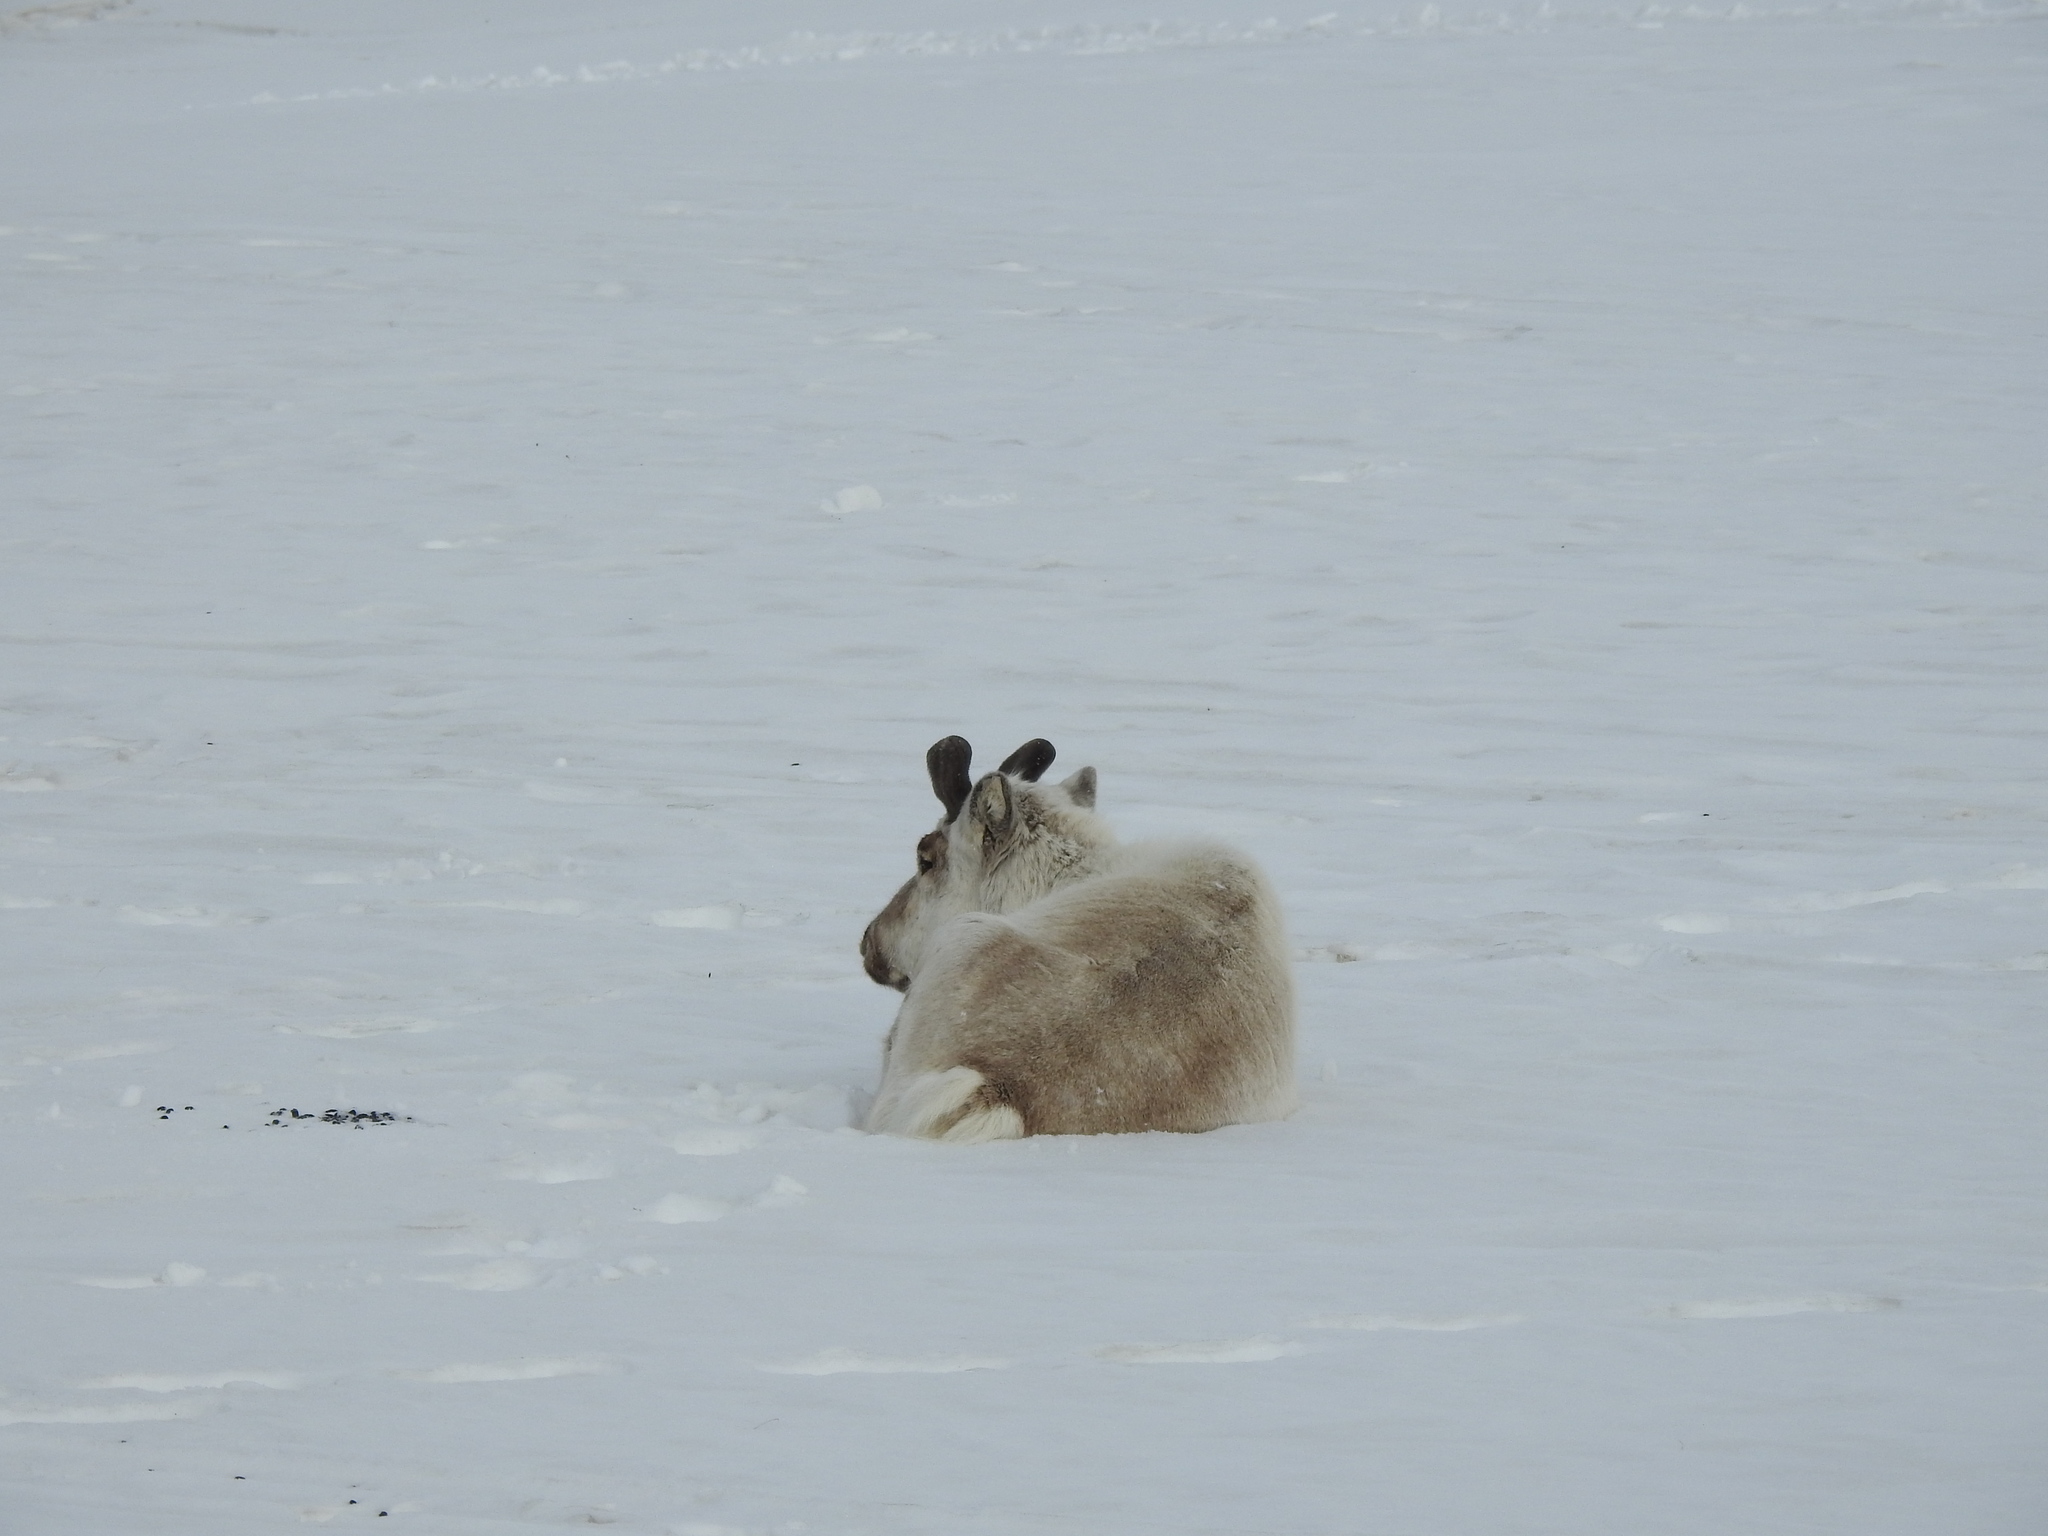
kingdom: Animalia
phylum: Chordata
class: Mammalia
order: Artiodactyla
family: Cervidae
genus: Rangifer
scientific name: Rangifer tarandus
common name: Reindeer
